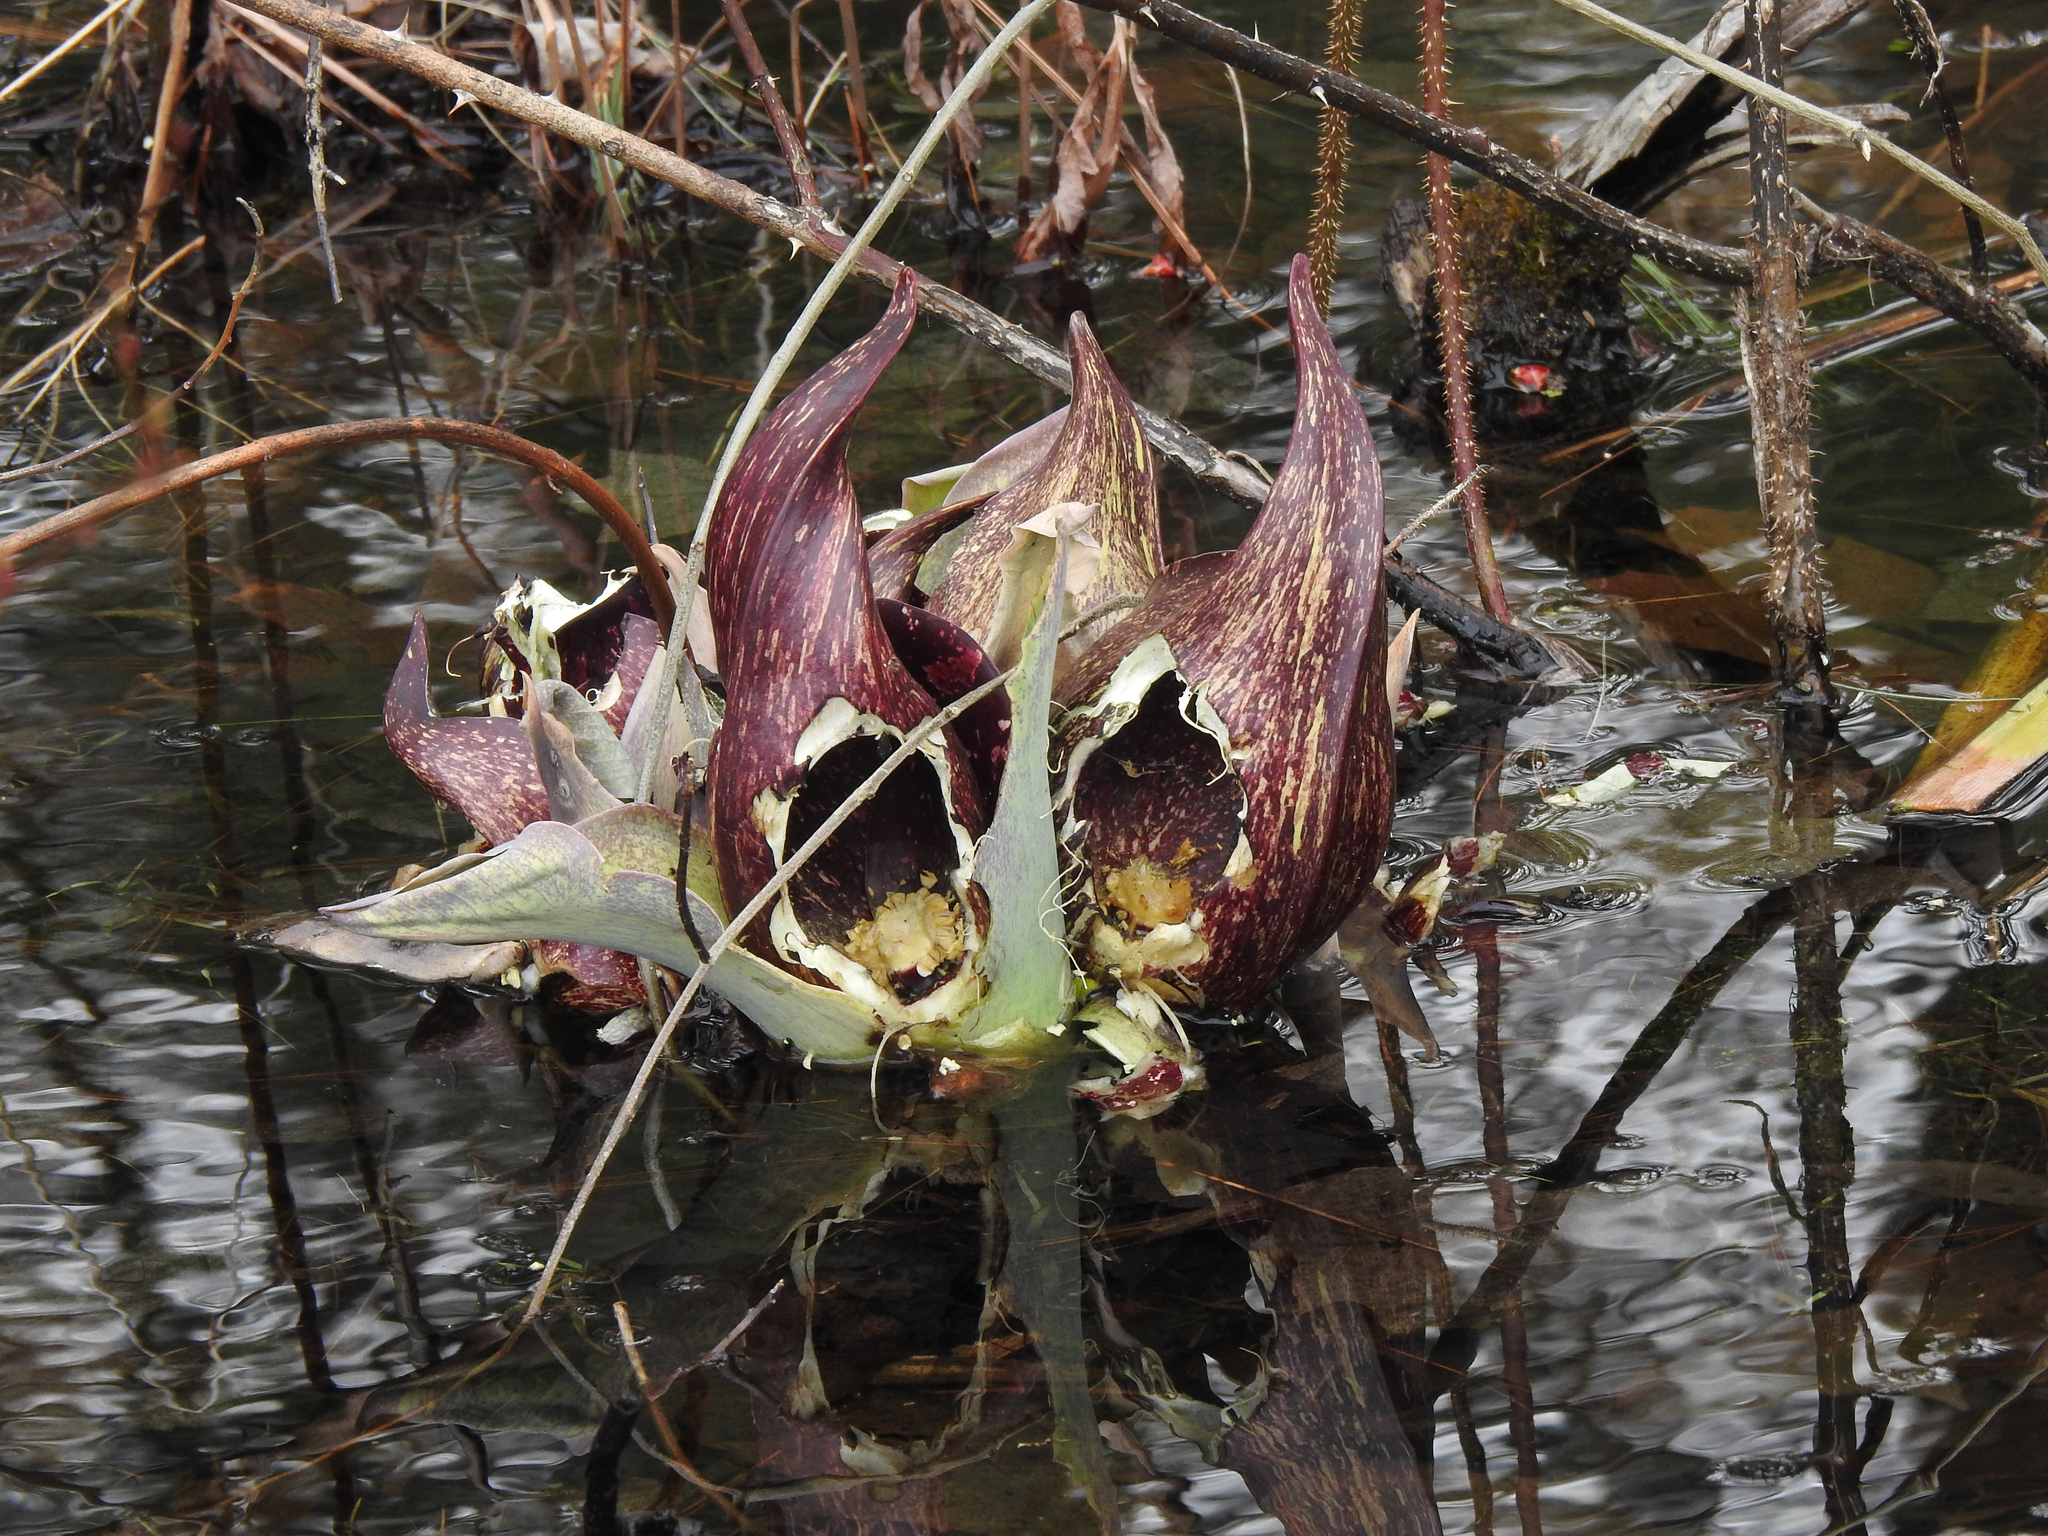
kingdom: Plantae
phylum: Tracheophyta
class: Liliopsida
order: Alismatales
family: Araceae
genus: Symplocarpus
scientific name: Symplocarpus foetidus
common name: Eastern skunk cabbage
